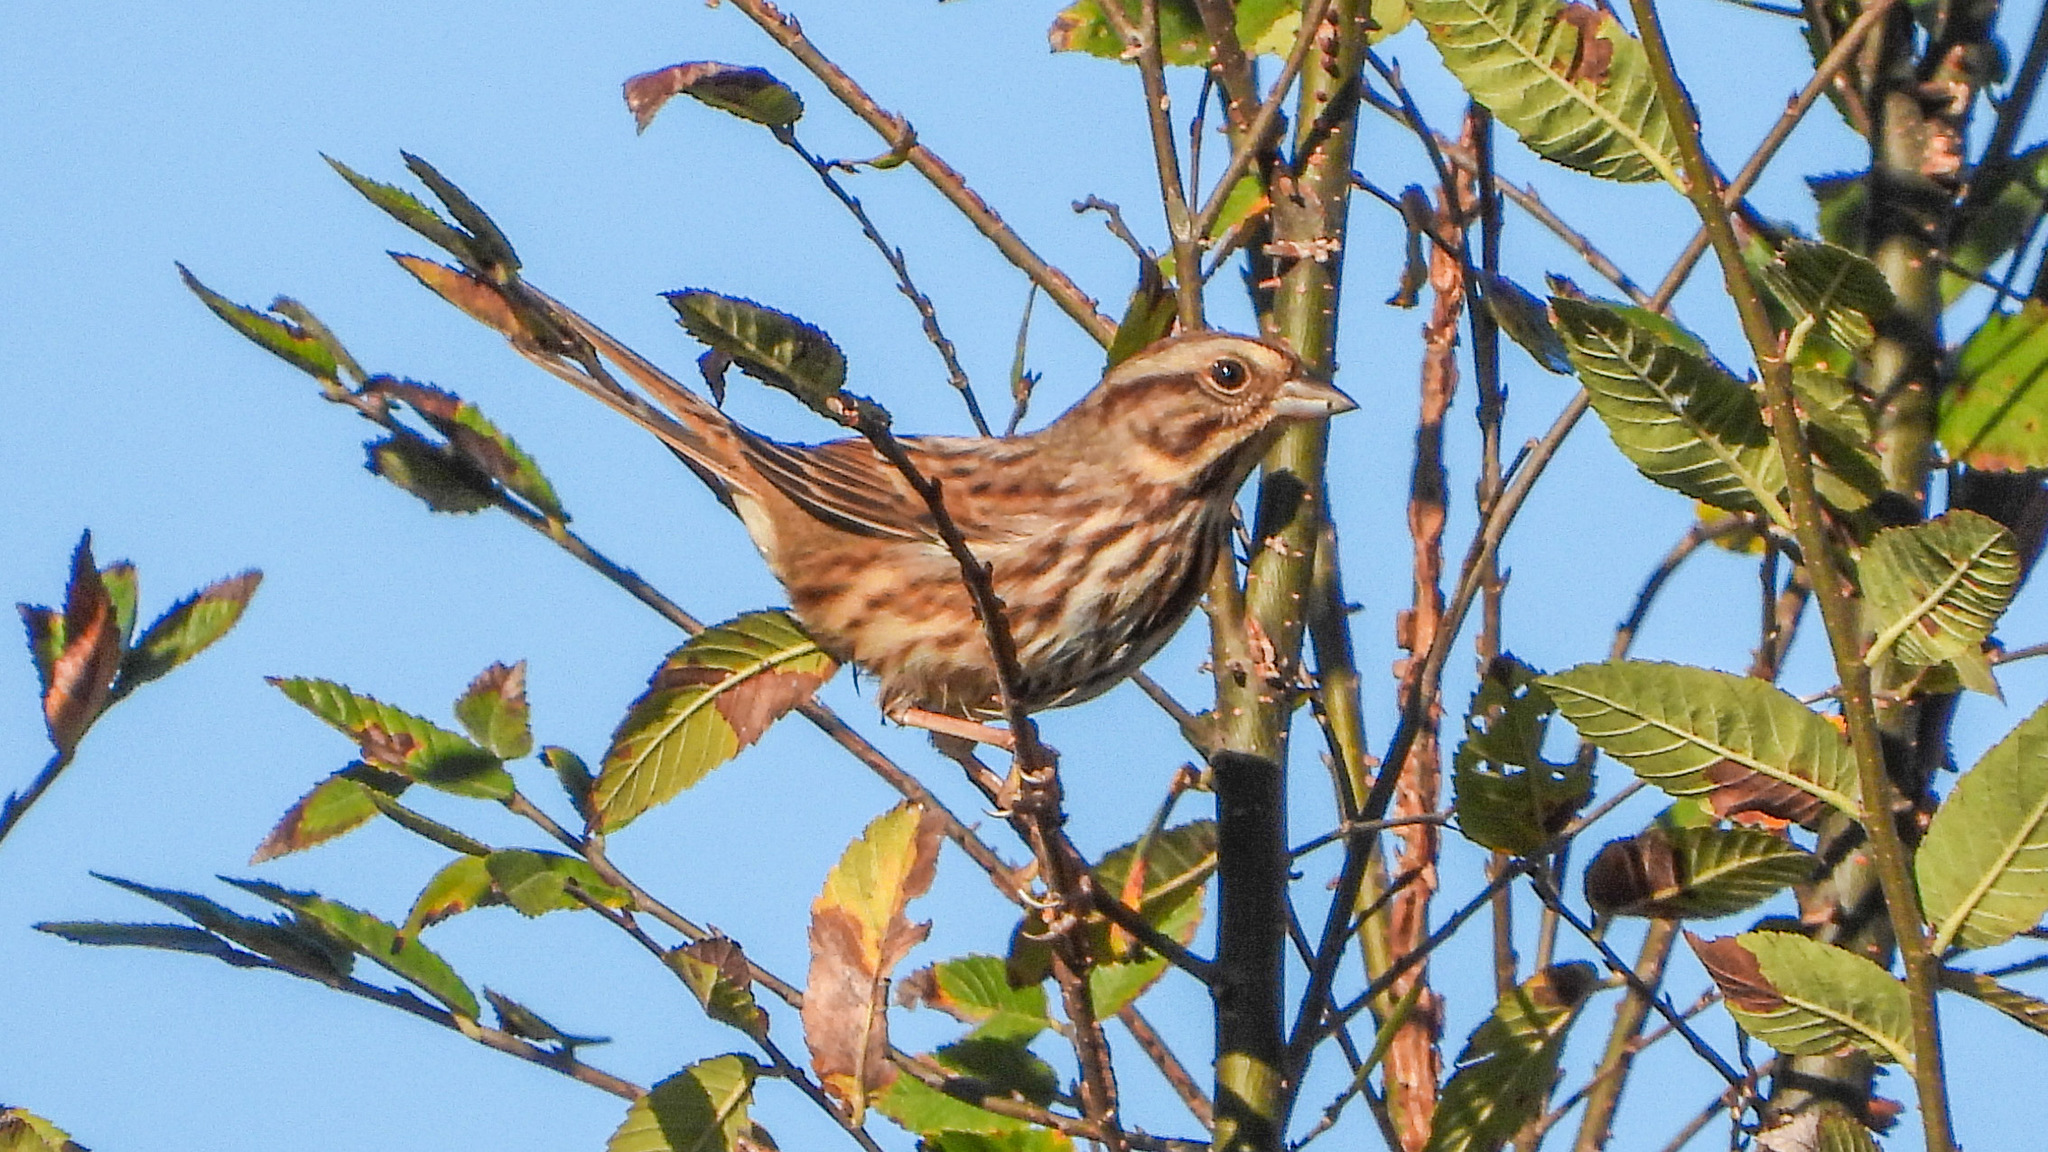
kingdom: Animalia
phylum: Chordata
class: Aves
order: Passeriformes
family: Passerellidae
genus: Melospiza
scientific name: Melospiza melodia
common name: Song sparrow
